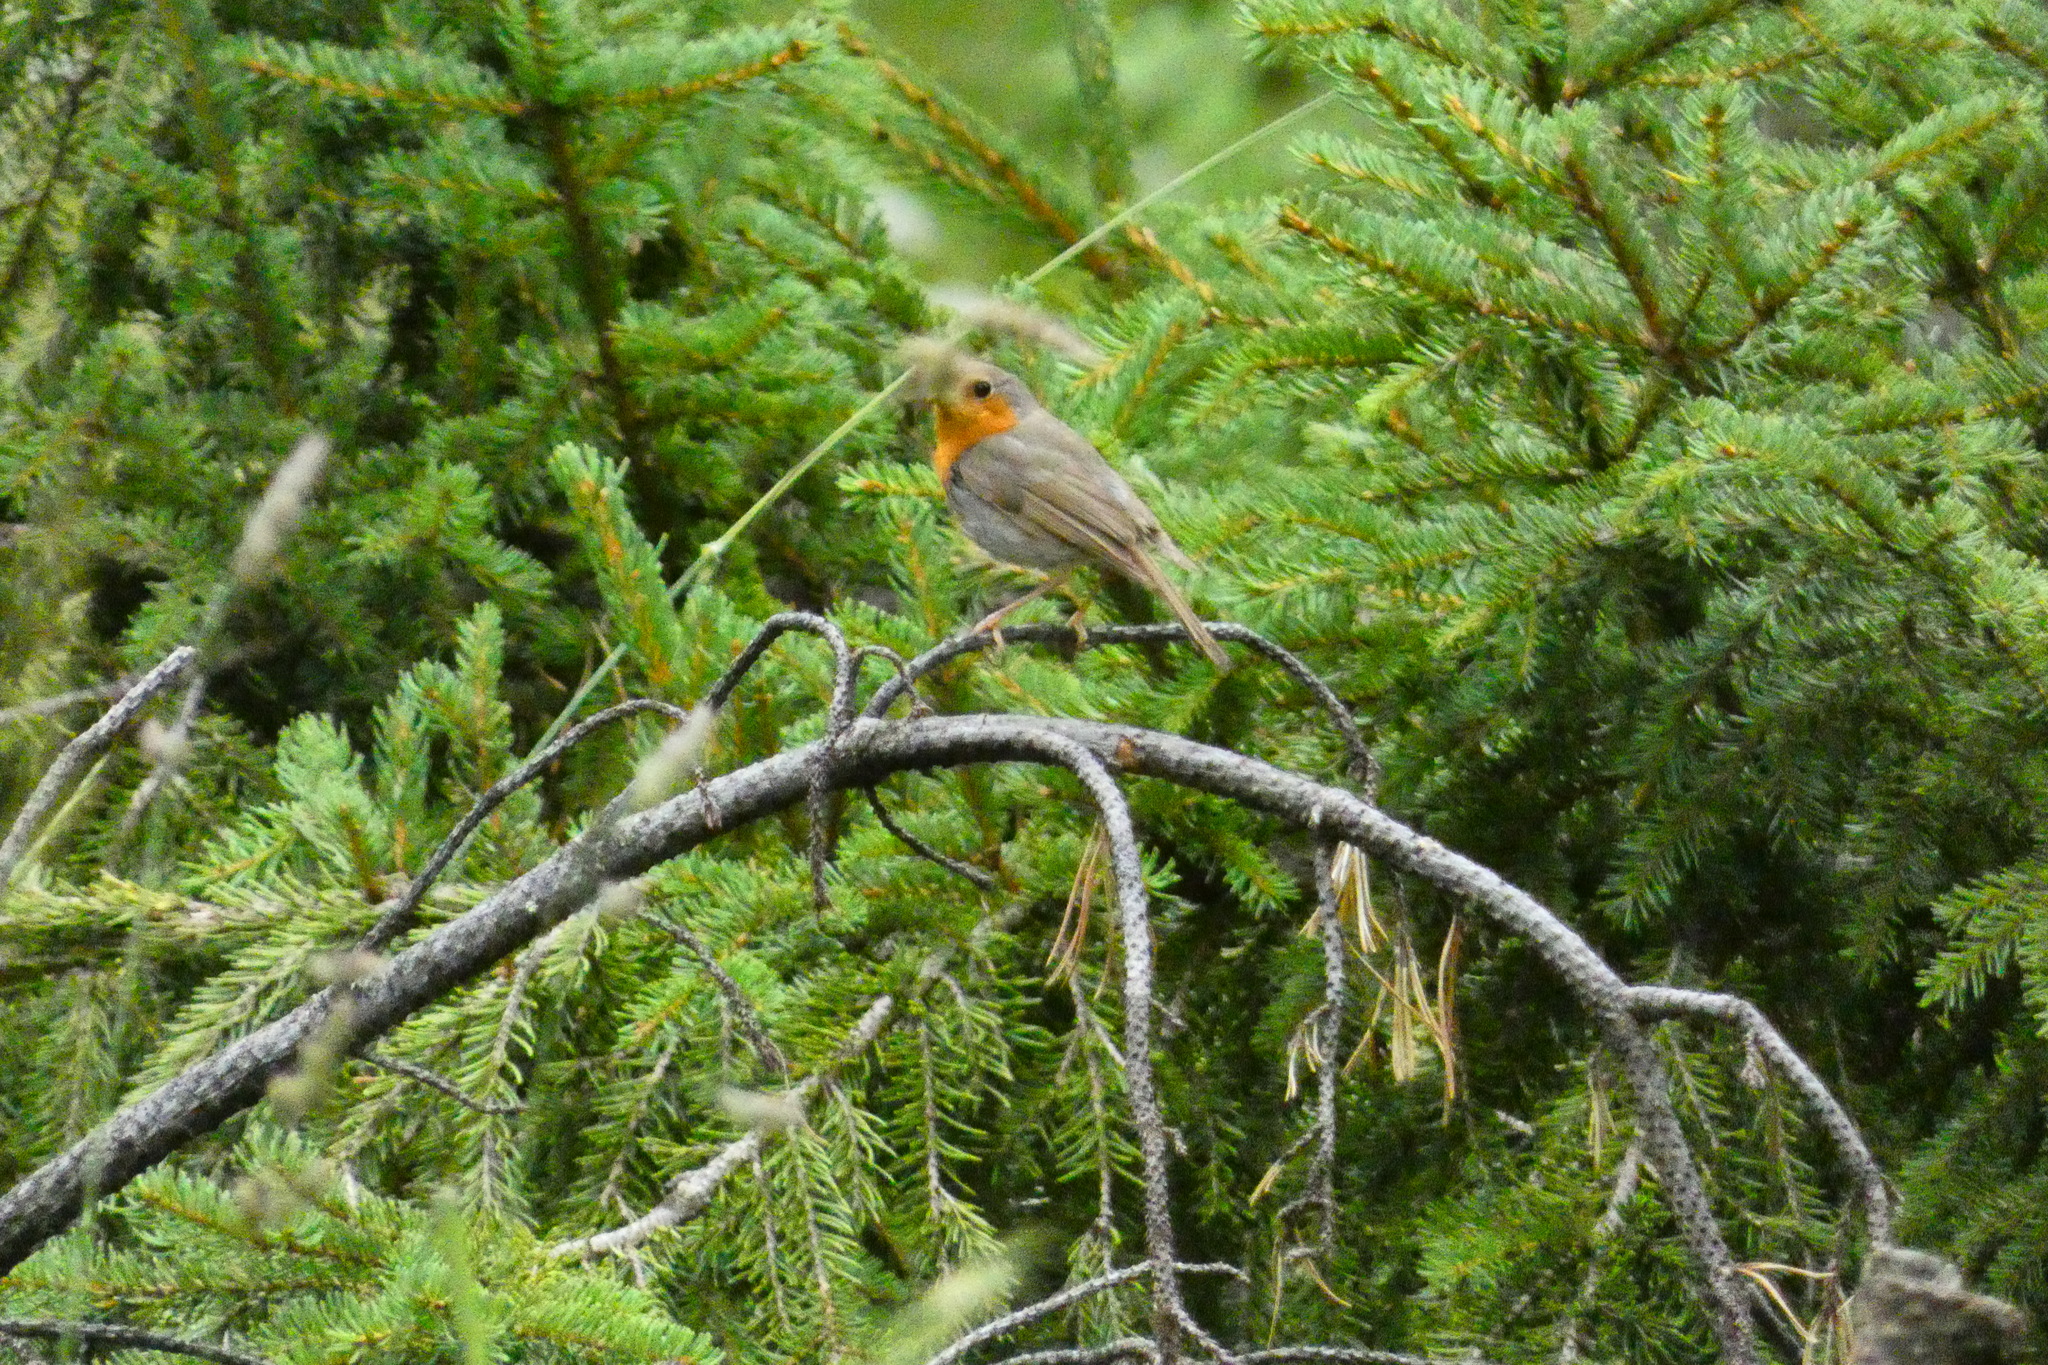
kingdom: Animalia
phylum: Chordata
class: Aves
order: Passeriformes
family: Muscicapidae
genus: Erithacus
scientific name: Erithacus rubecula
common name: European robin
